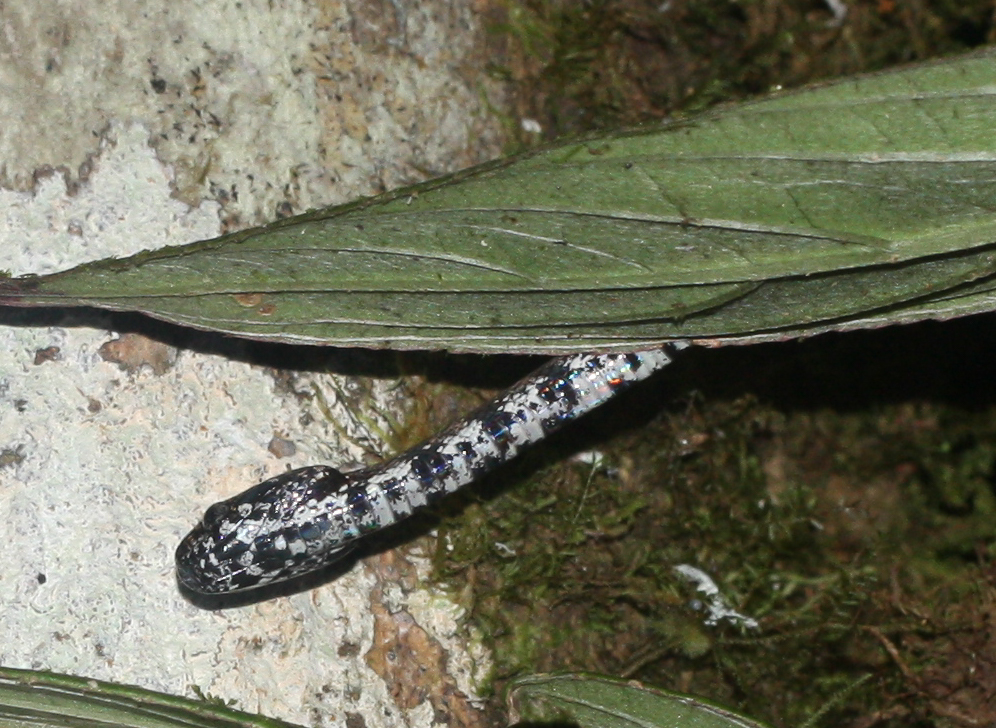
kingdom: Animalia
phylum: Chordata
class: Squamata
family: Colubridae
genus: Sibon
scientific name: Sibon nebulatus
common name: Cloudy snail-eating snake
